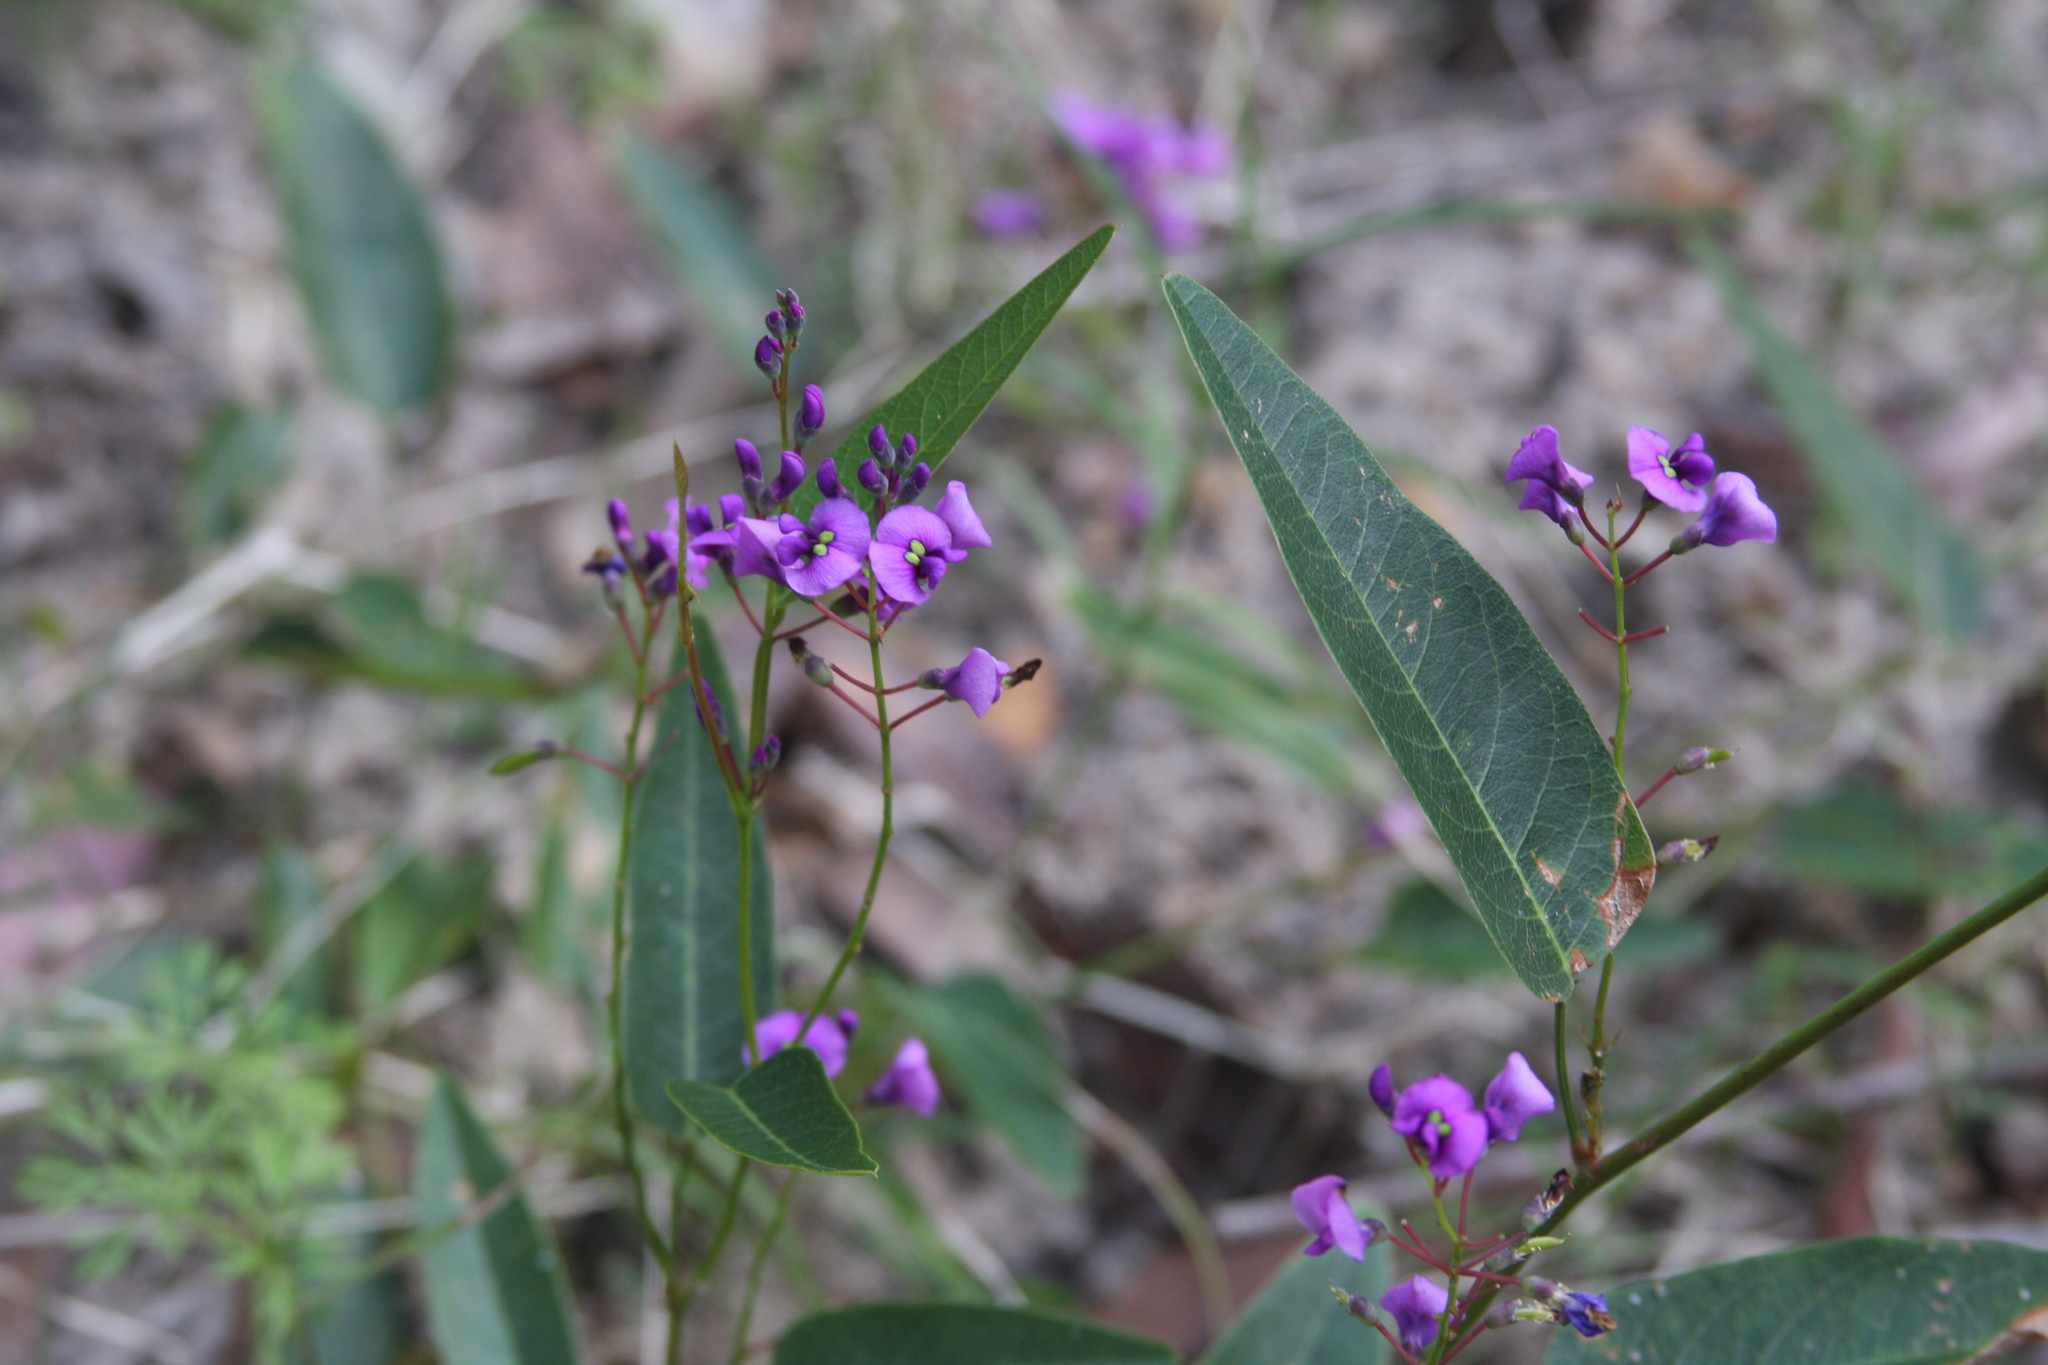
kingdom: Plantae
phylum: Tracheophyta
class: Magnoliopsida
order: Fabales
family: Fabaceae
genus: Hardenbergia
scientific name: Hardenbergia violacea
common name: Coral-pea
